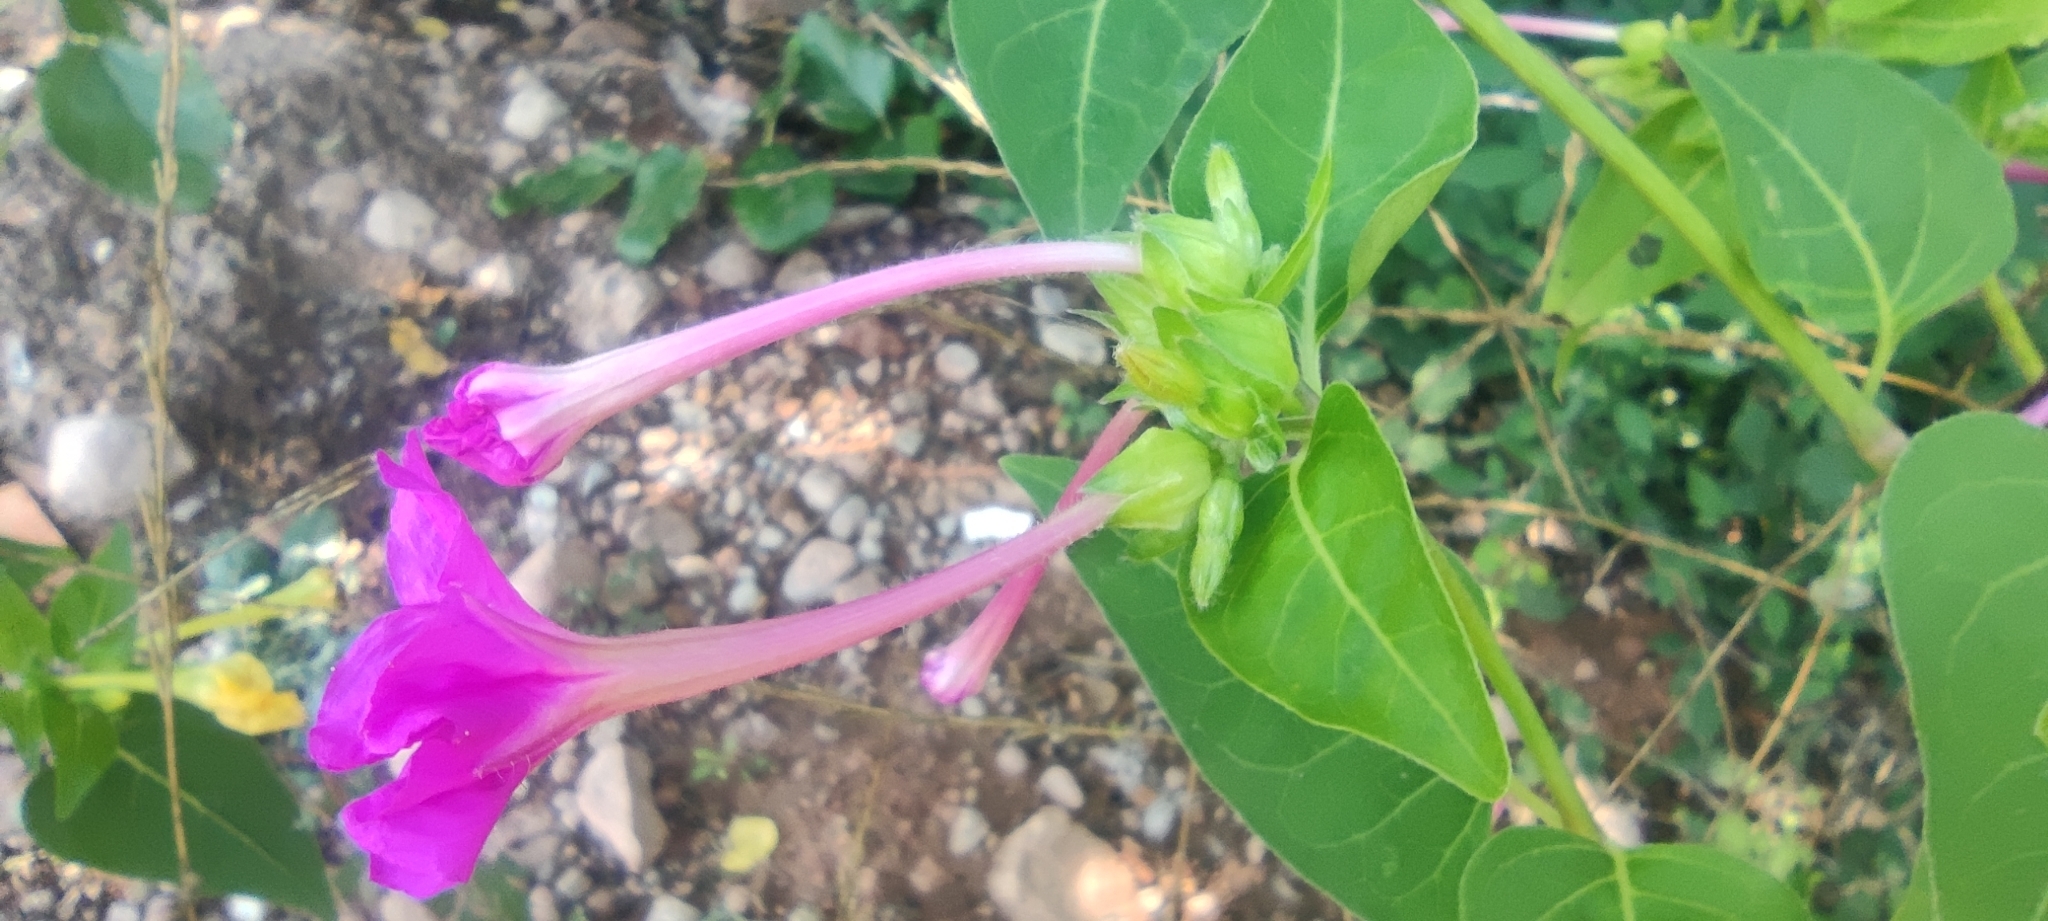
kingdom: Plantae
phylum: Tracheophyta
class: Magnoliopsida
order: Caryophyllales
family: Nyctaginaceae
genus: Mirabilis
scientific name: Mirabilis jalapa
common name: Marvel-of-peru
